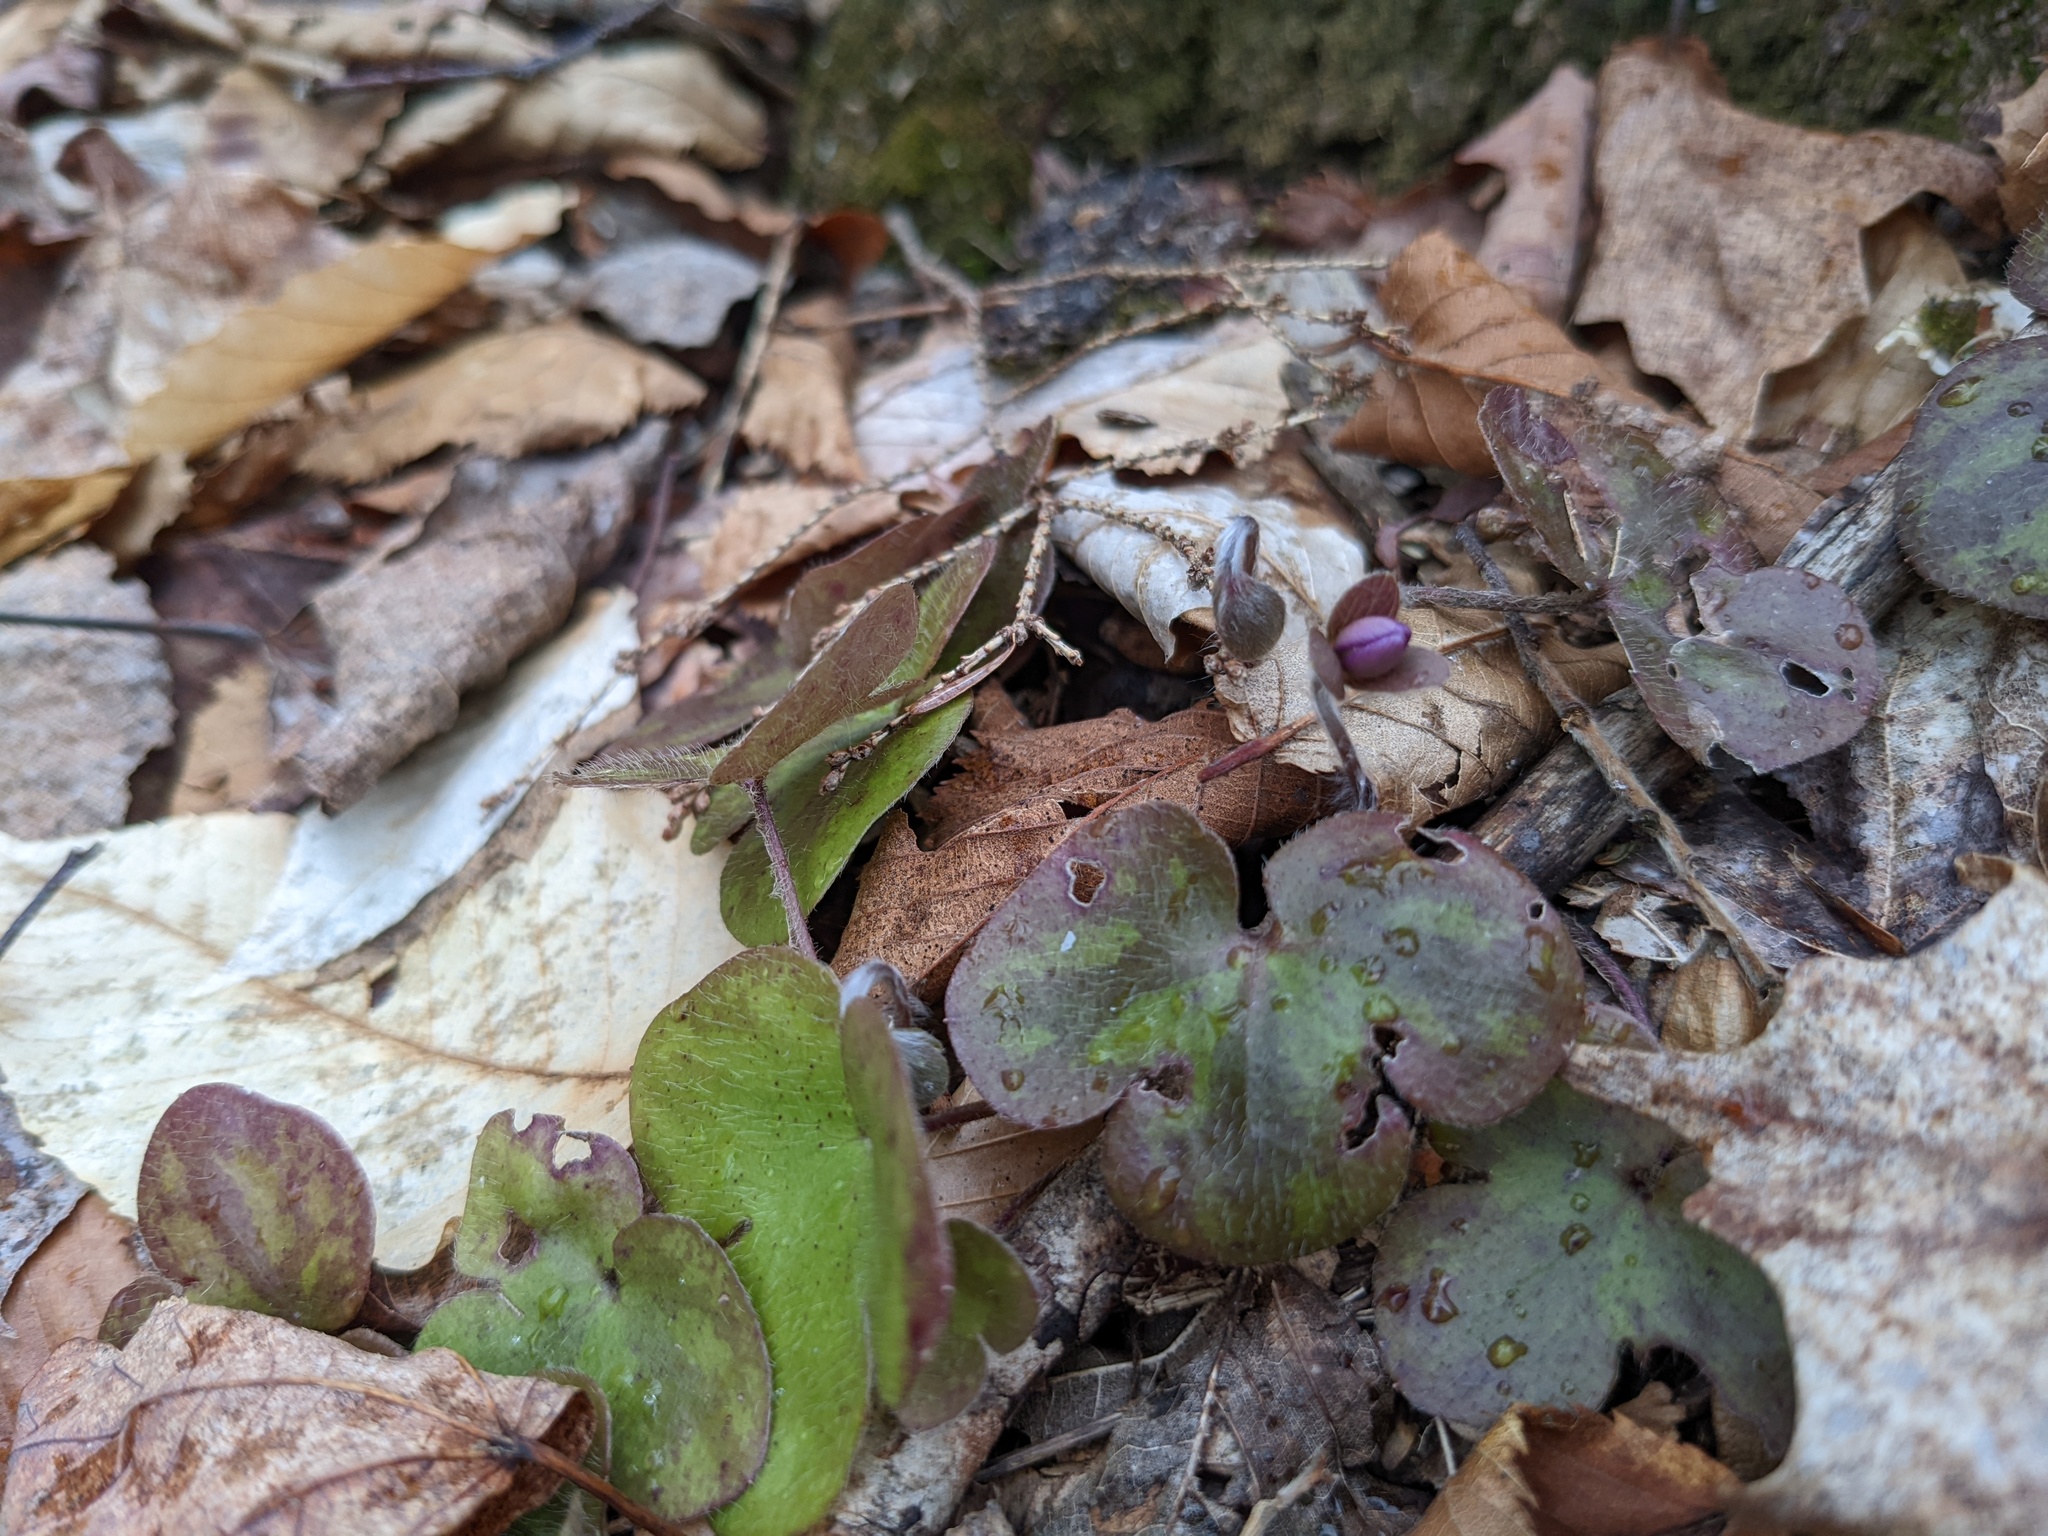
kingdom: Plantae
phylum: Tracheophyta
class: Magnoliopsida
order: Ranunculales
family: Ranunculaceae
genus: Hepatica
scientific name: Hepatica americana
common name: American hepatica
